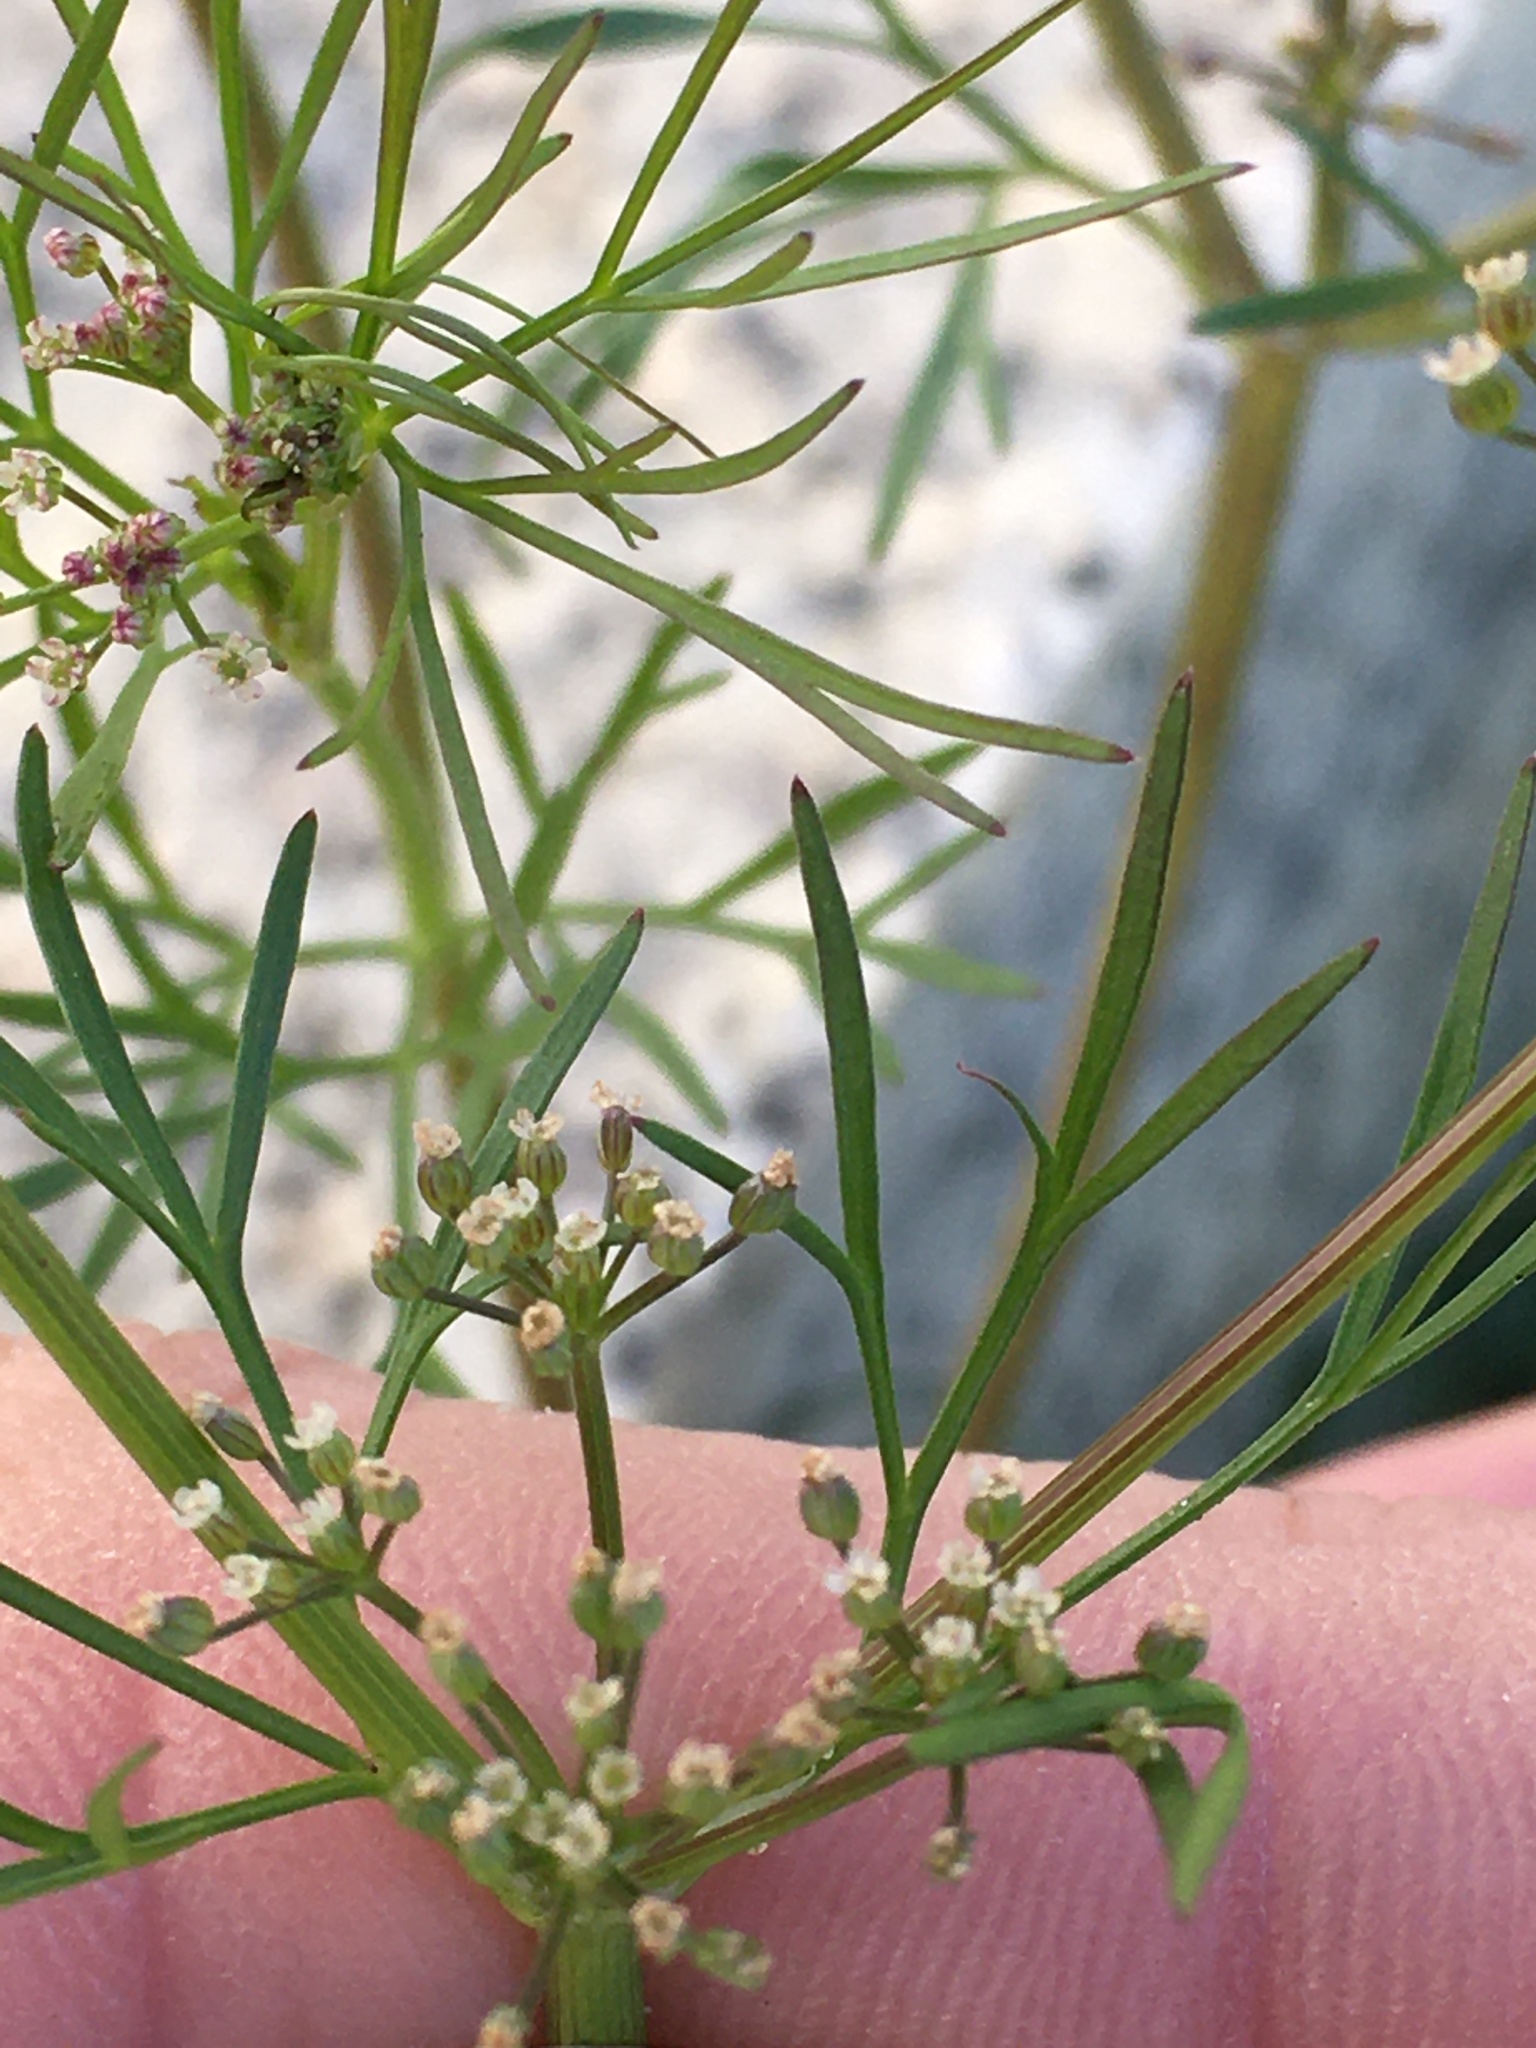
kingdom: Plantae
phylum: Tracheophyta
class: Magnoliopsida
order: Apiales
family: Apiaceae
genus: Cyclospermum
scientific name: Cyclospermum leptophyllum
